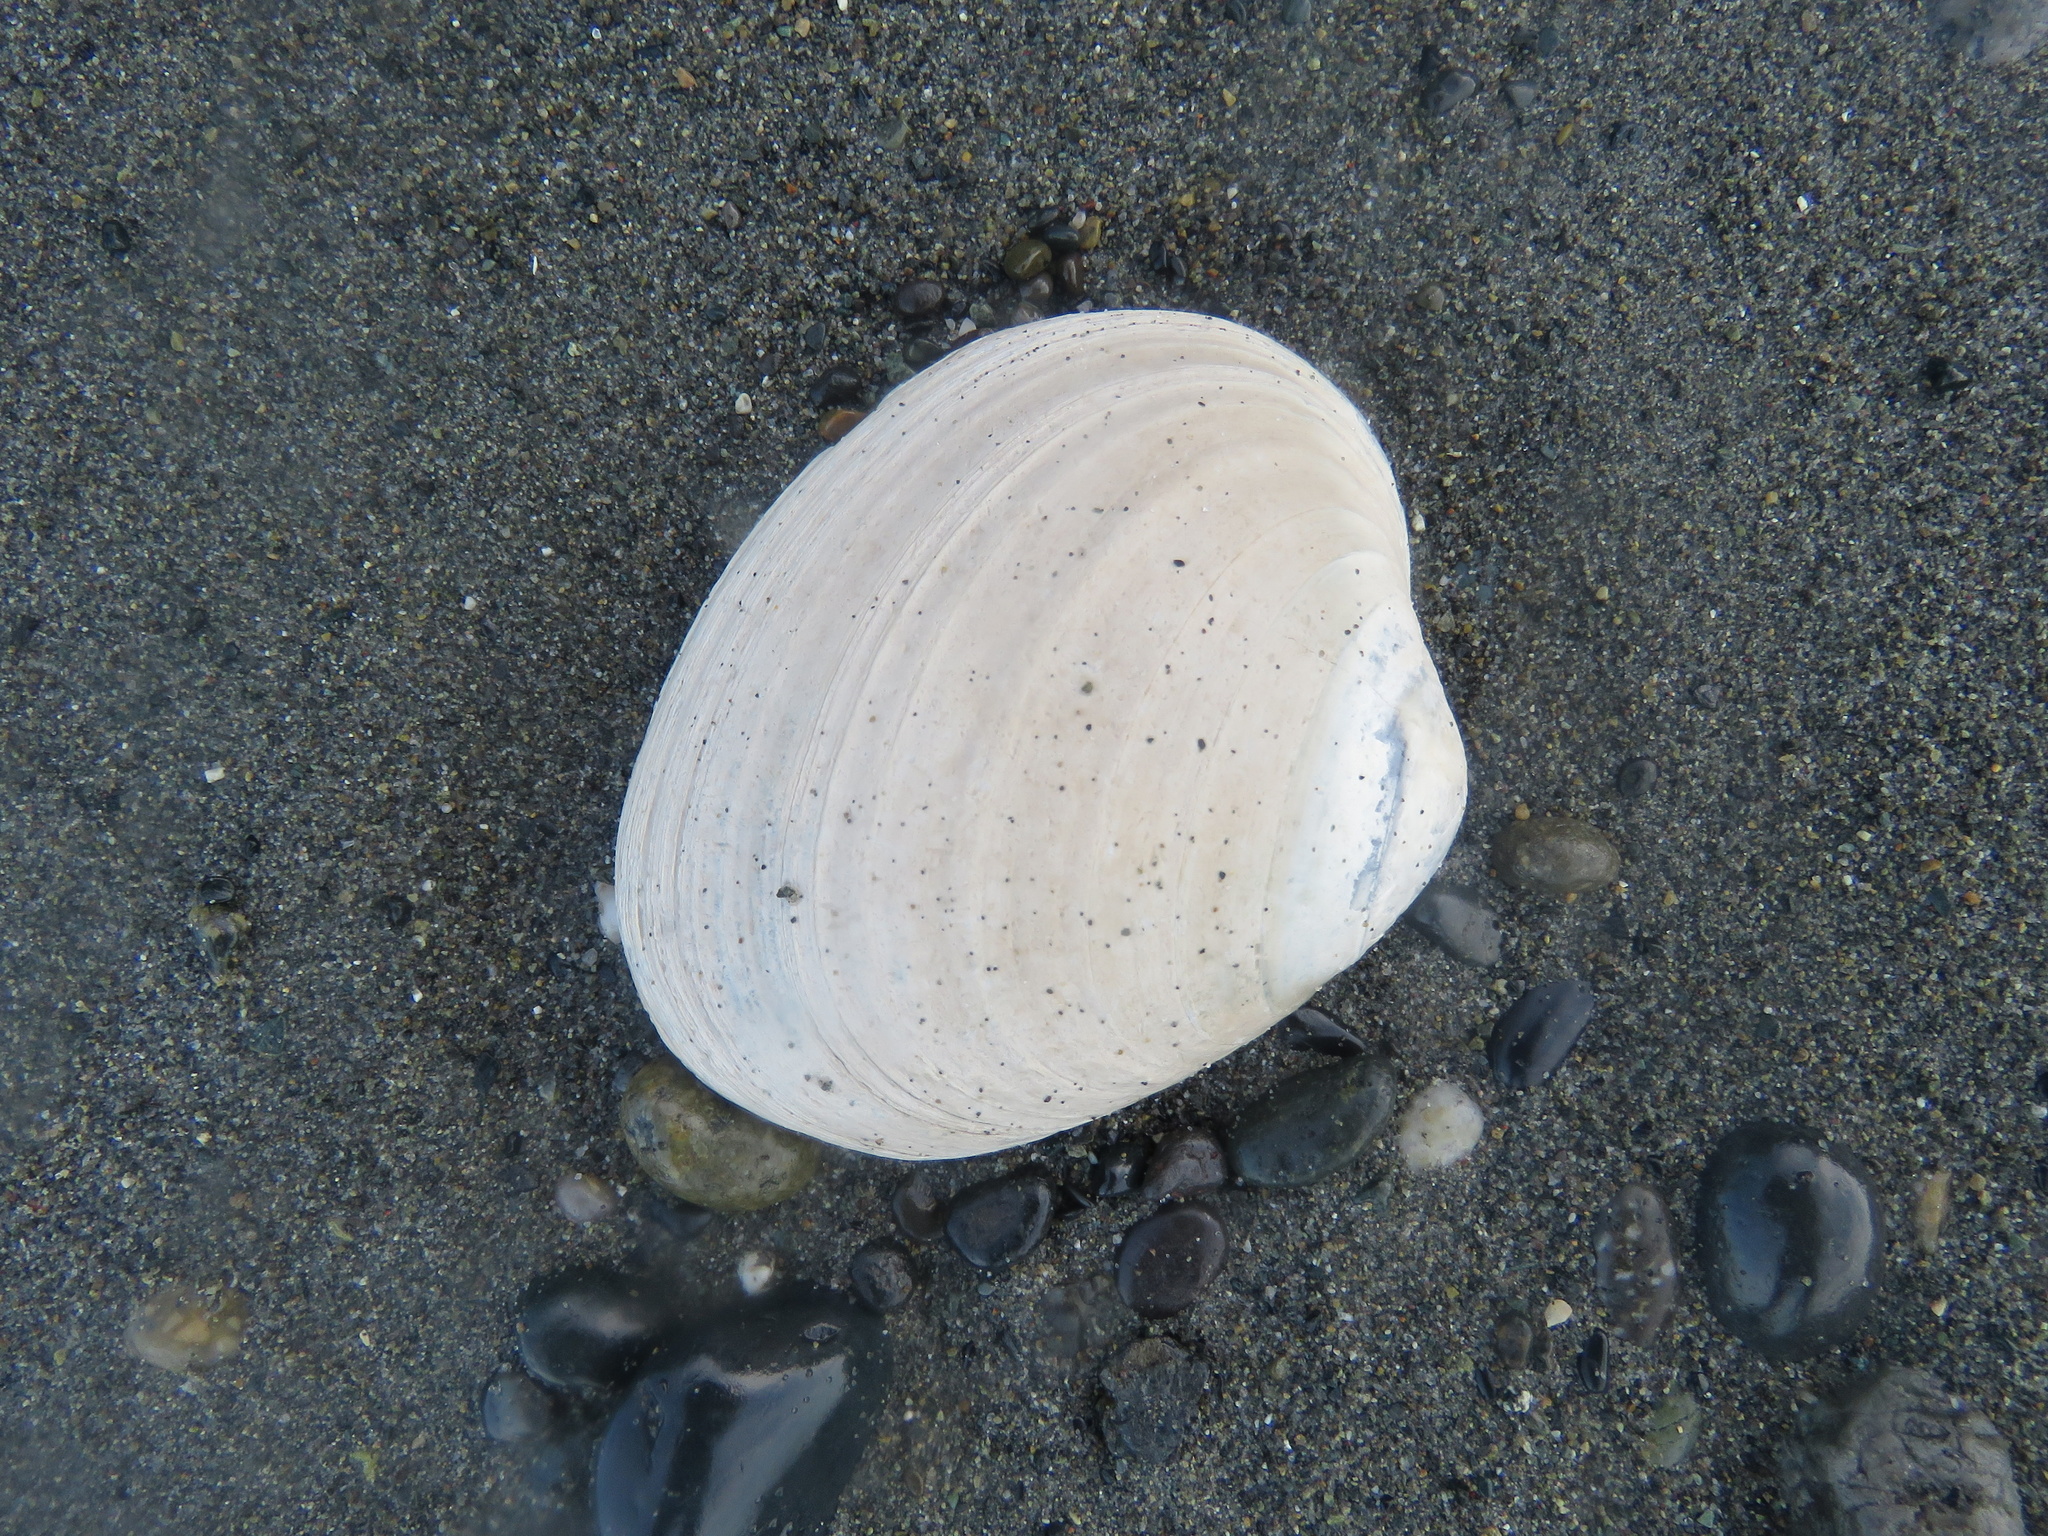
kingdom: Animalia
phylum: Mollusca
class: Bivalvia
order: Venerida
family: Veneridae
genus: Saxidomus
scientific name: Saxidomus gigantea
